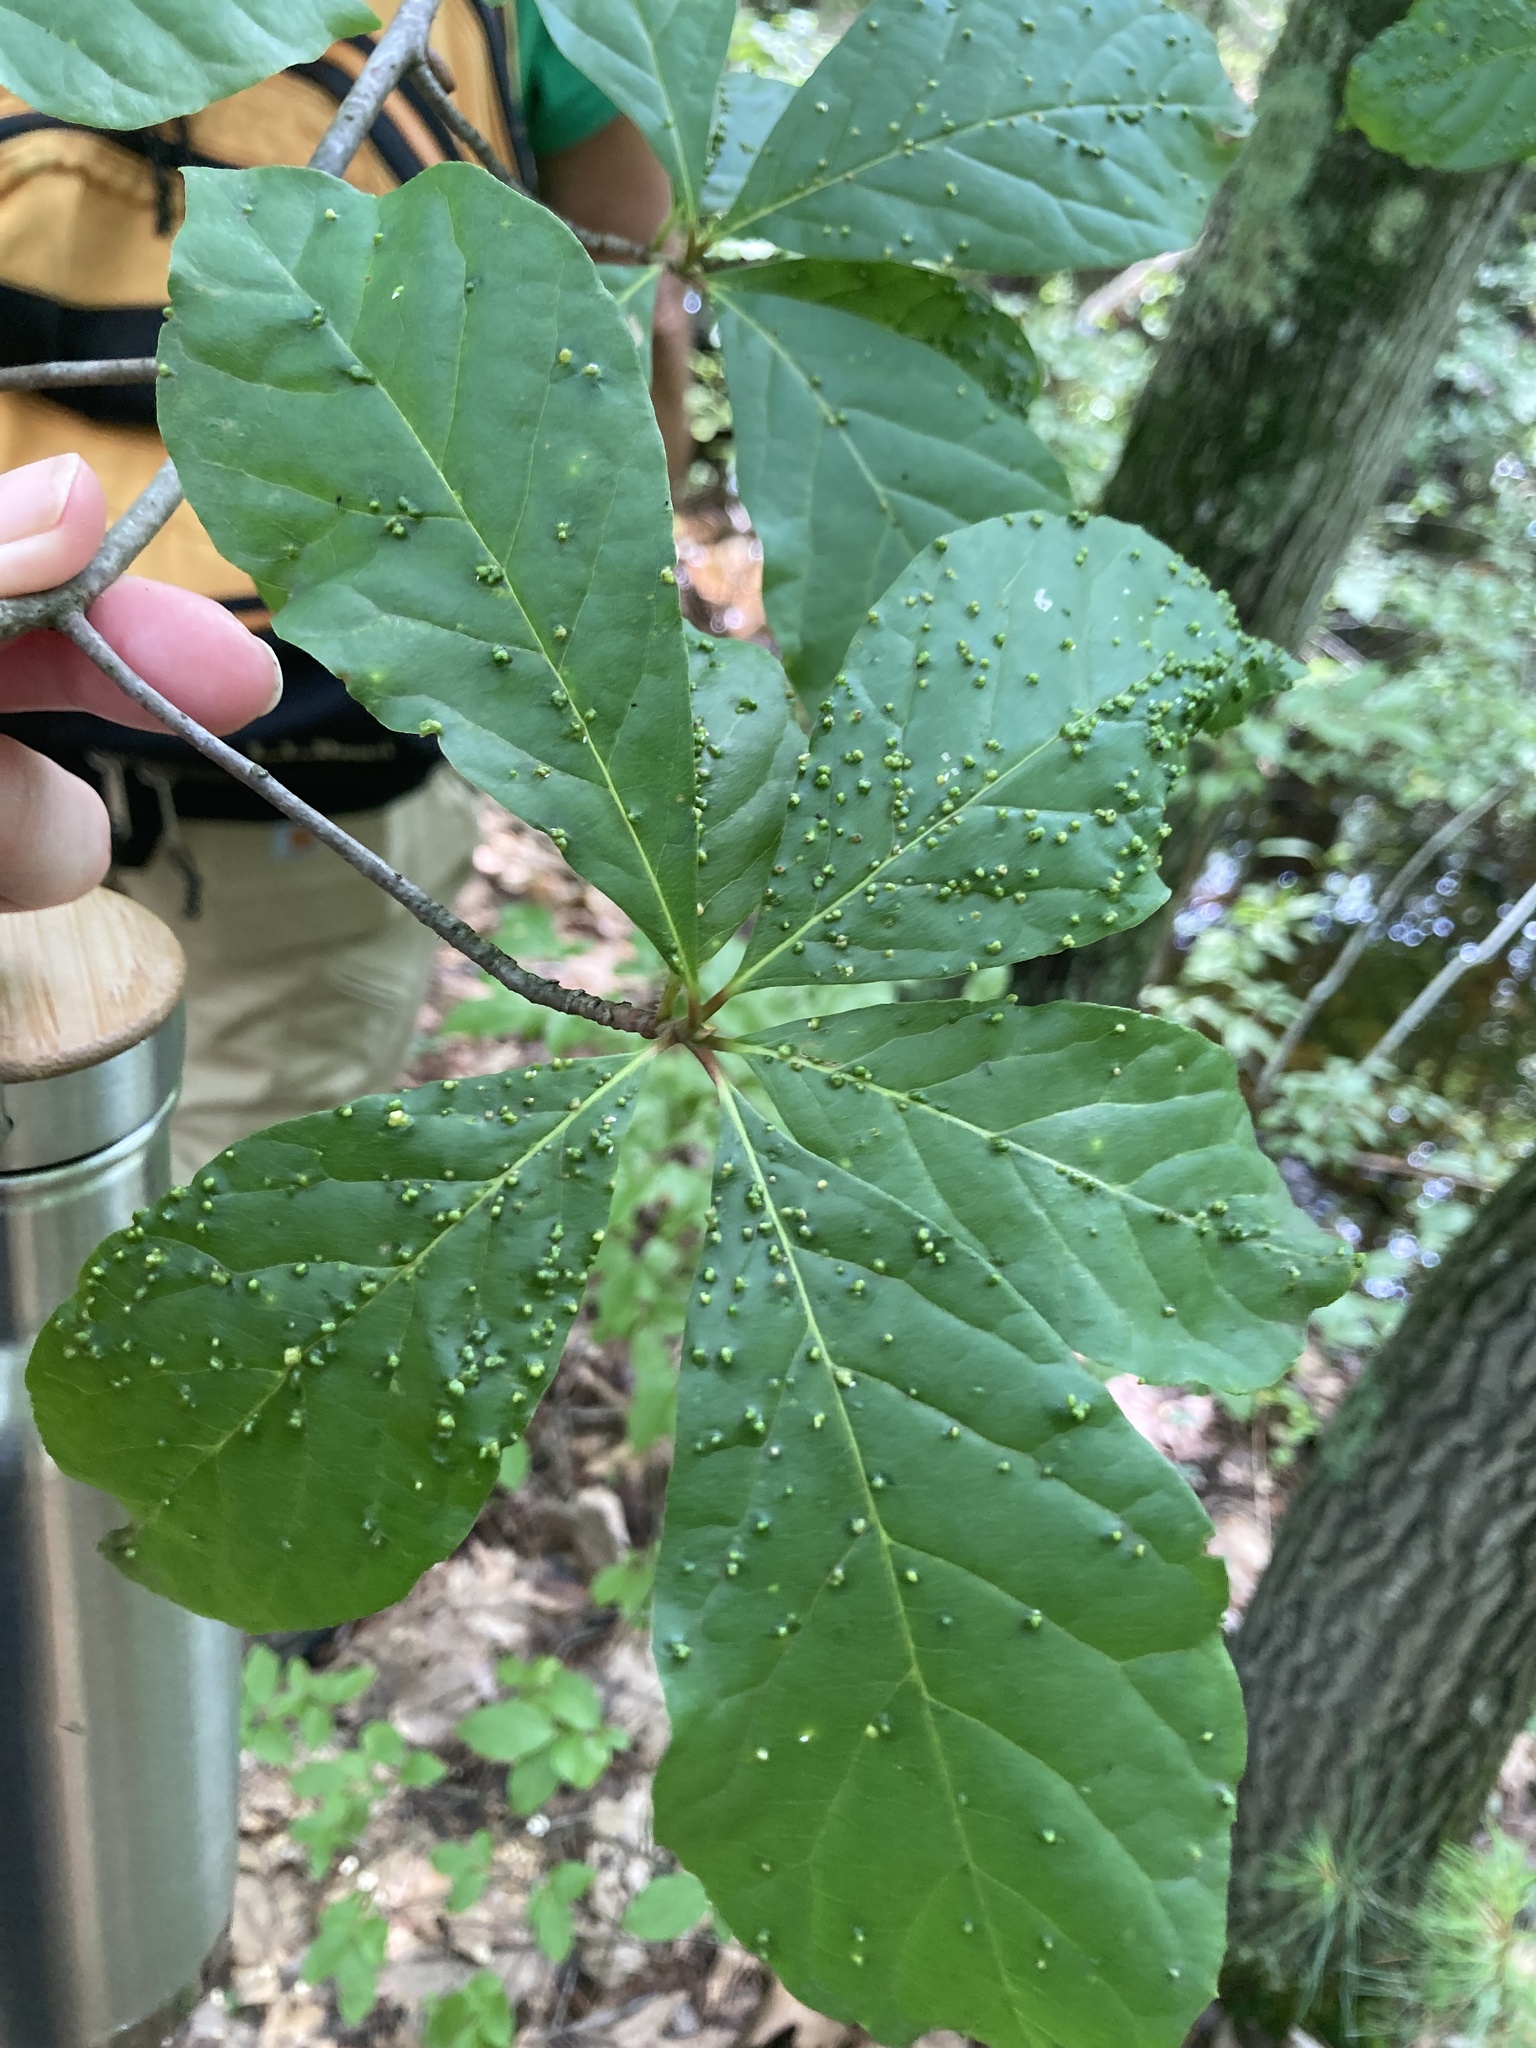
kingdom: Animalia
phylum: Arthropoda
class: Arachnida
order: Trombidiformes
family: Eriophyidae
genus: Aceria
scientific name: Aceria
